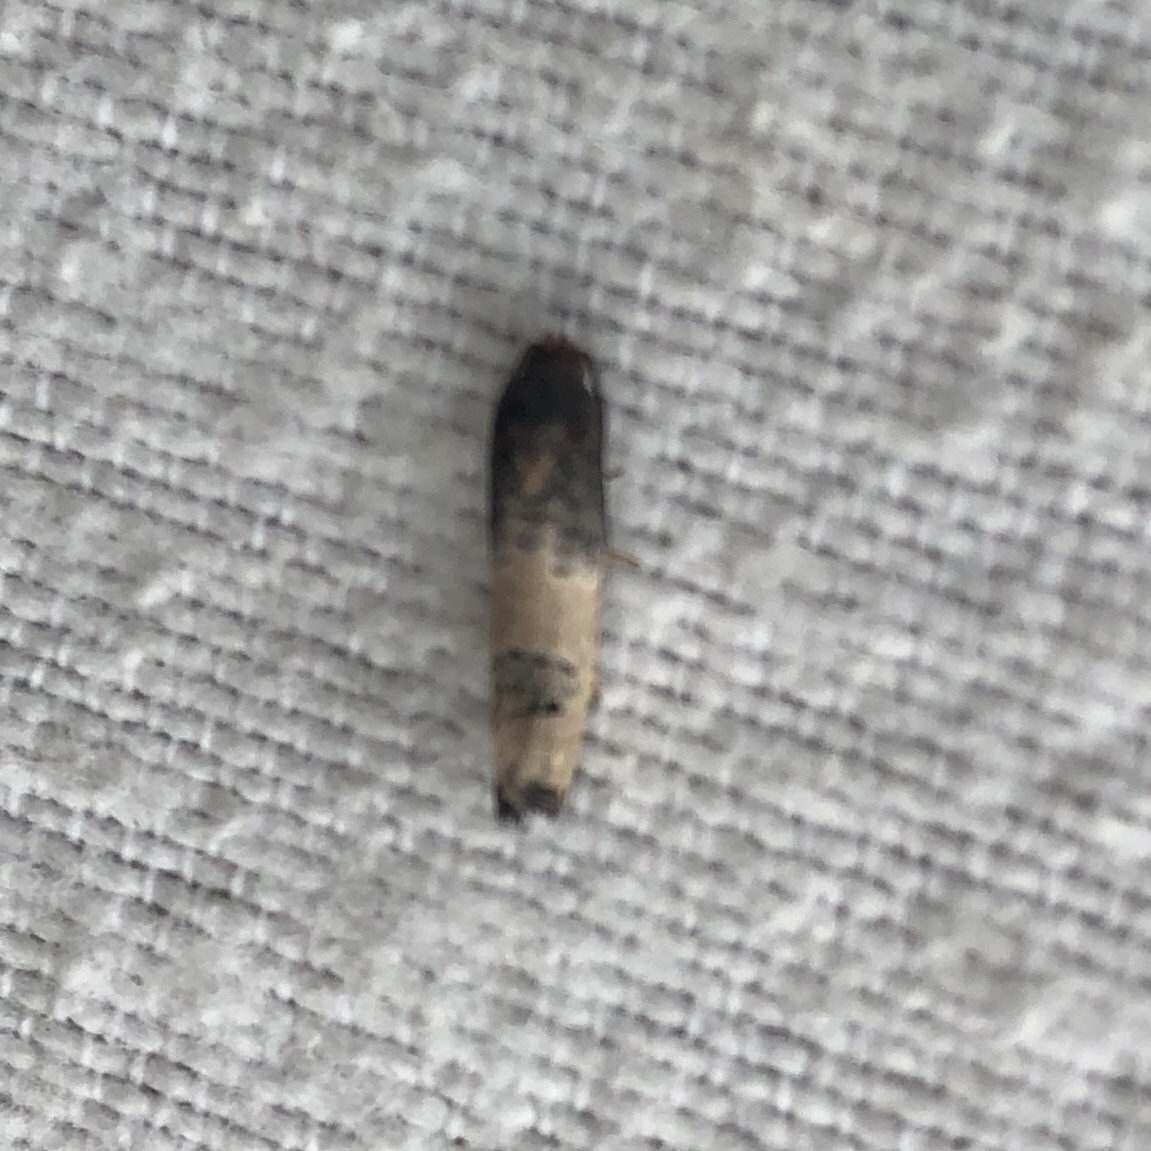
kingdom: Animalia
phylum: Arthropoda
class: Insecta
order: Lepidoptera
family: Tortricidae
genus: Epiblema
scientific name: Epiblema desertana
